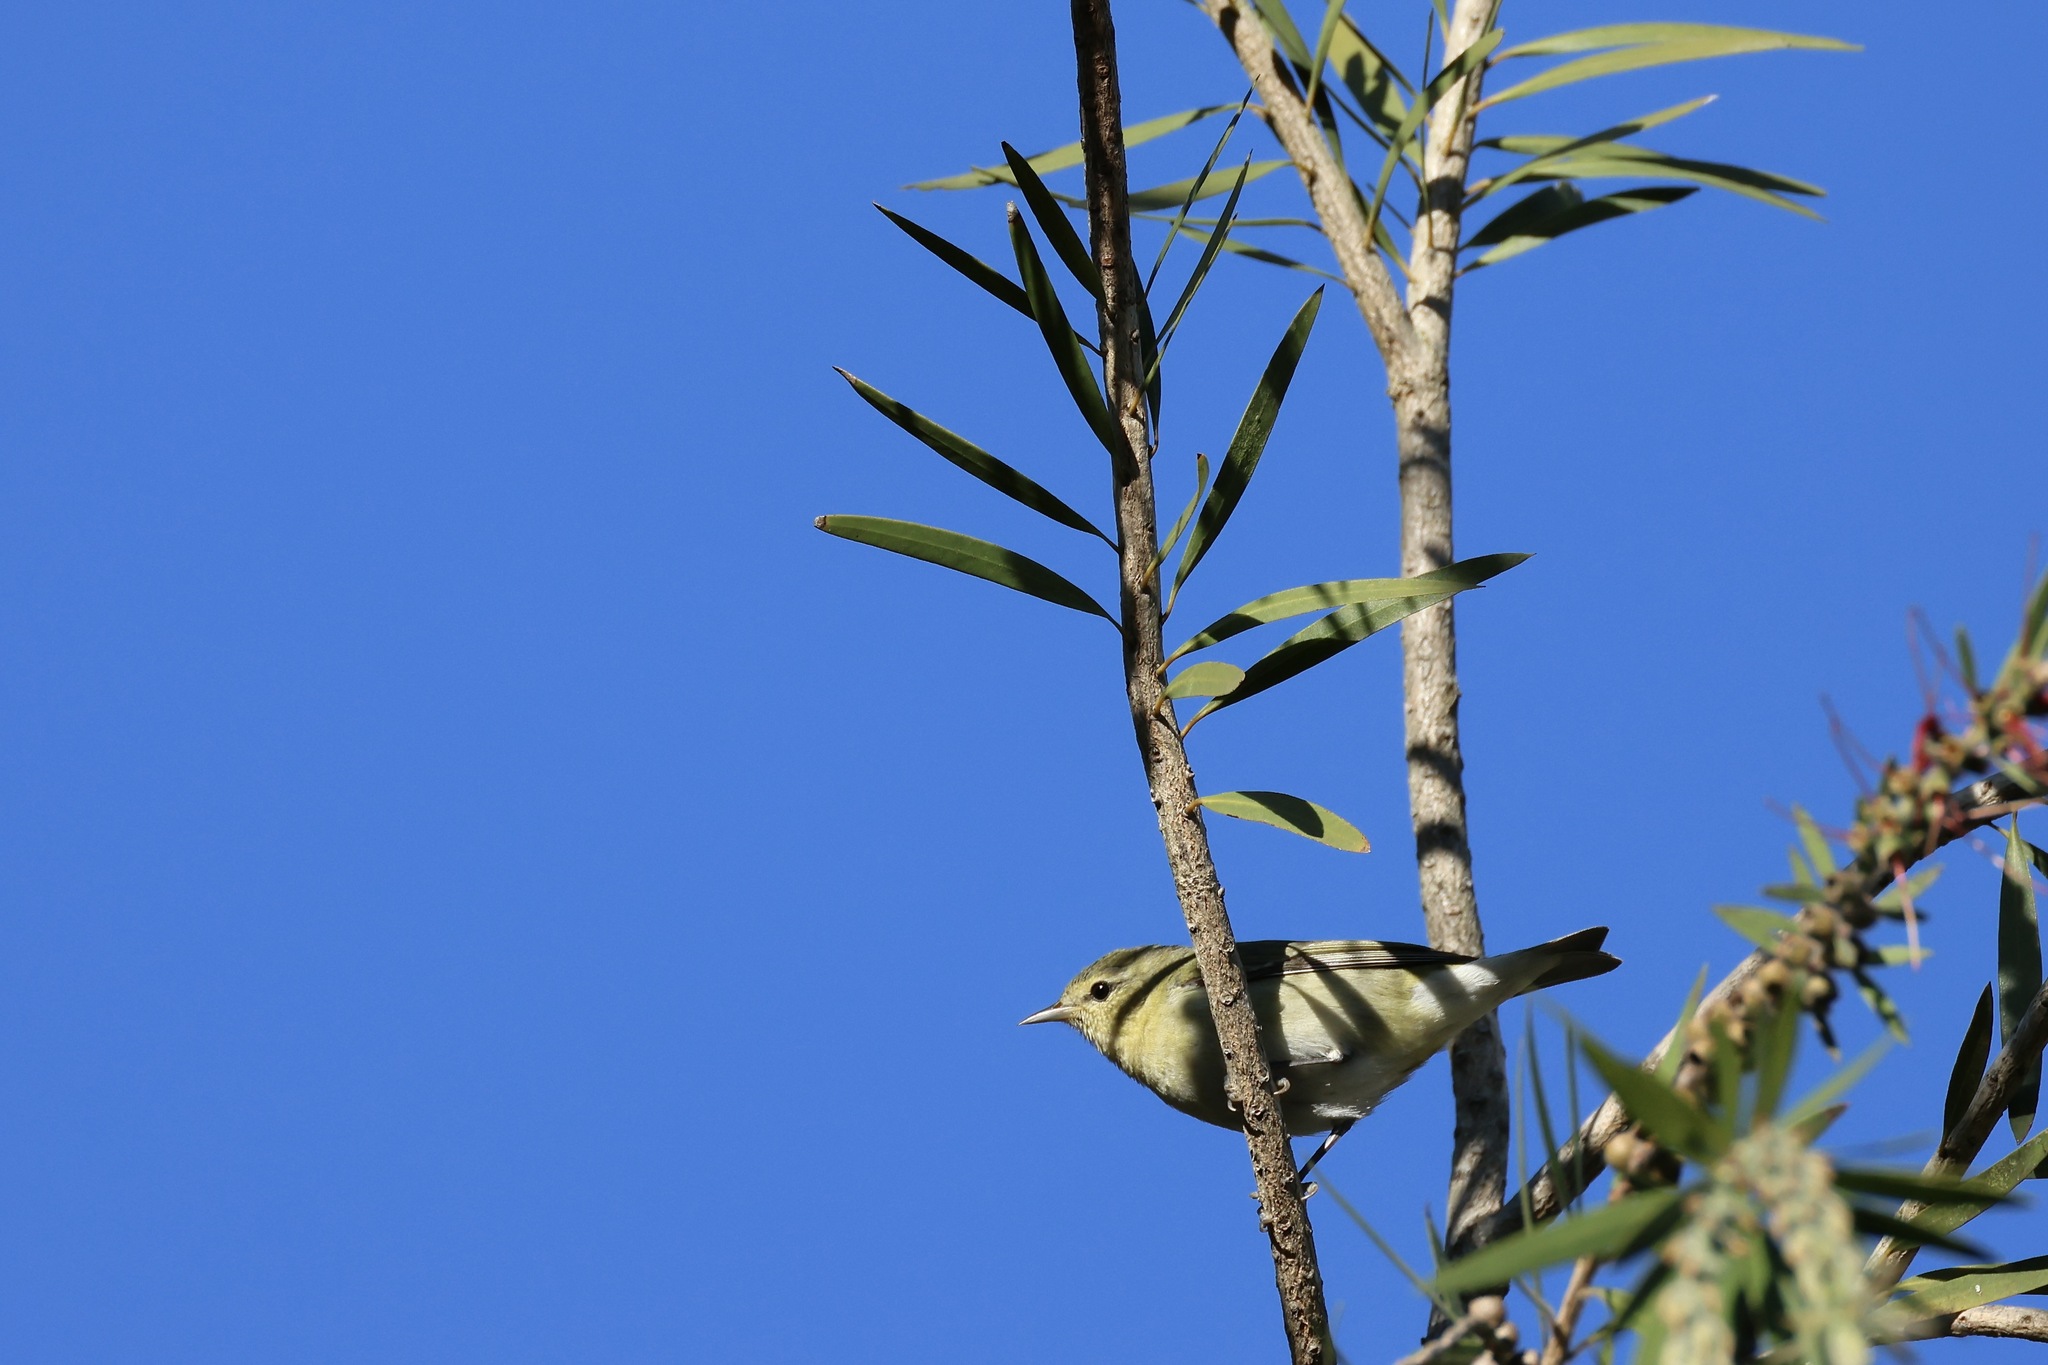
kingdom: Animalia
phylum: Chordata
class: Aves
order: Passeriformes
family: Parulidae
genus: Leiothlypis
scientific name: Leiothlypis peregrina
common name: Tennessee warbler
